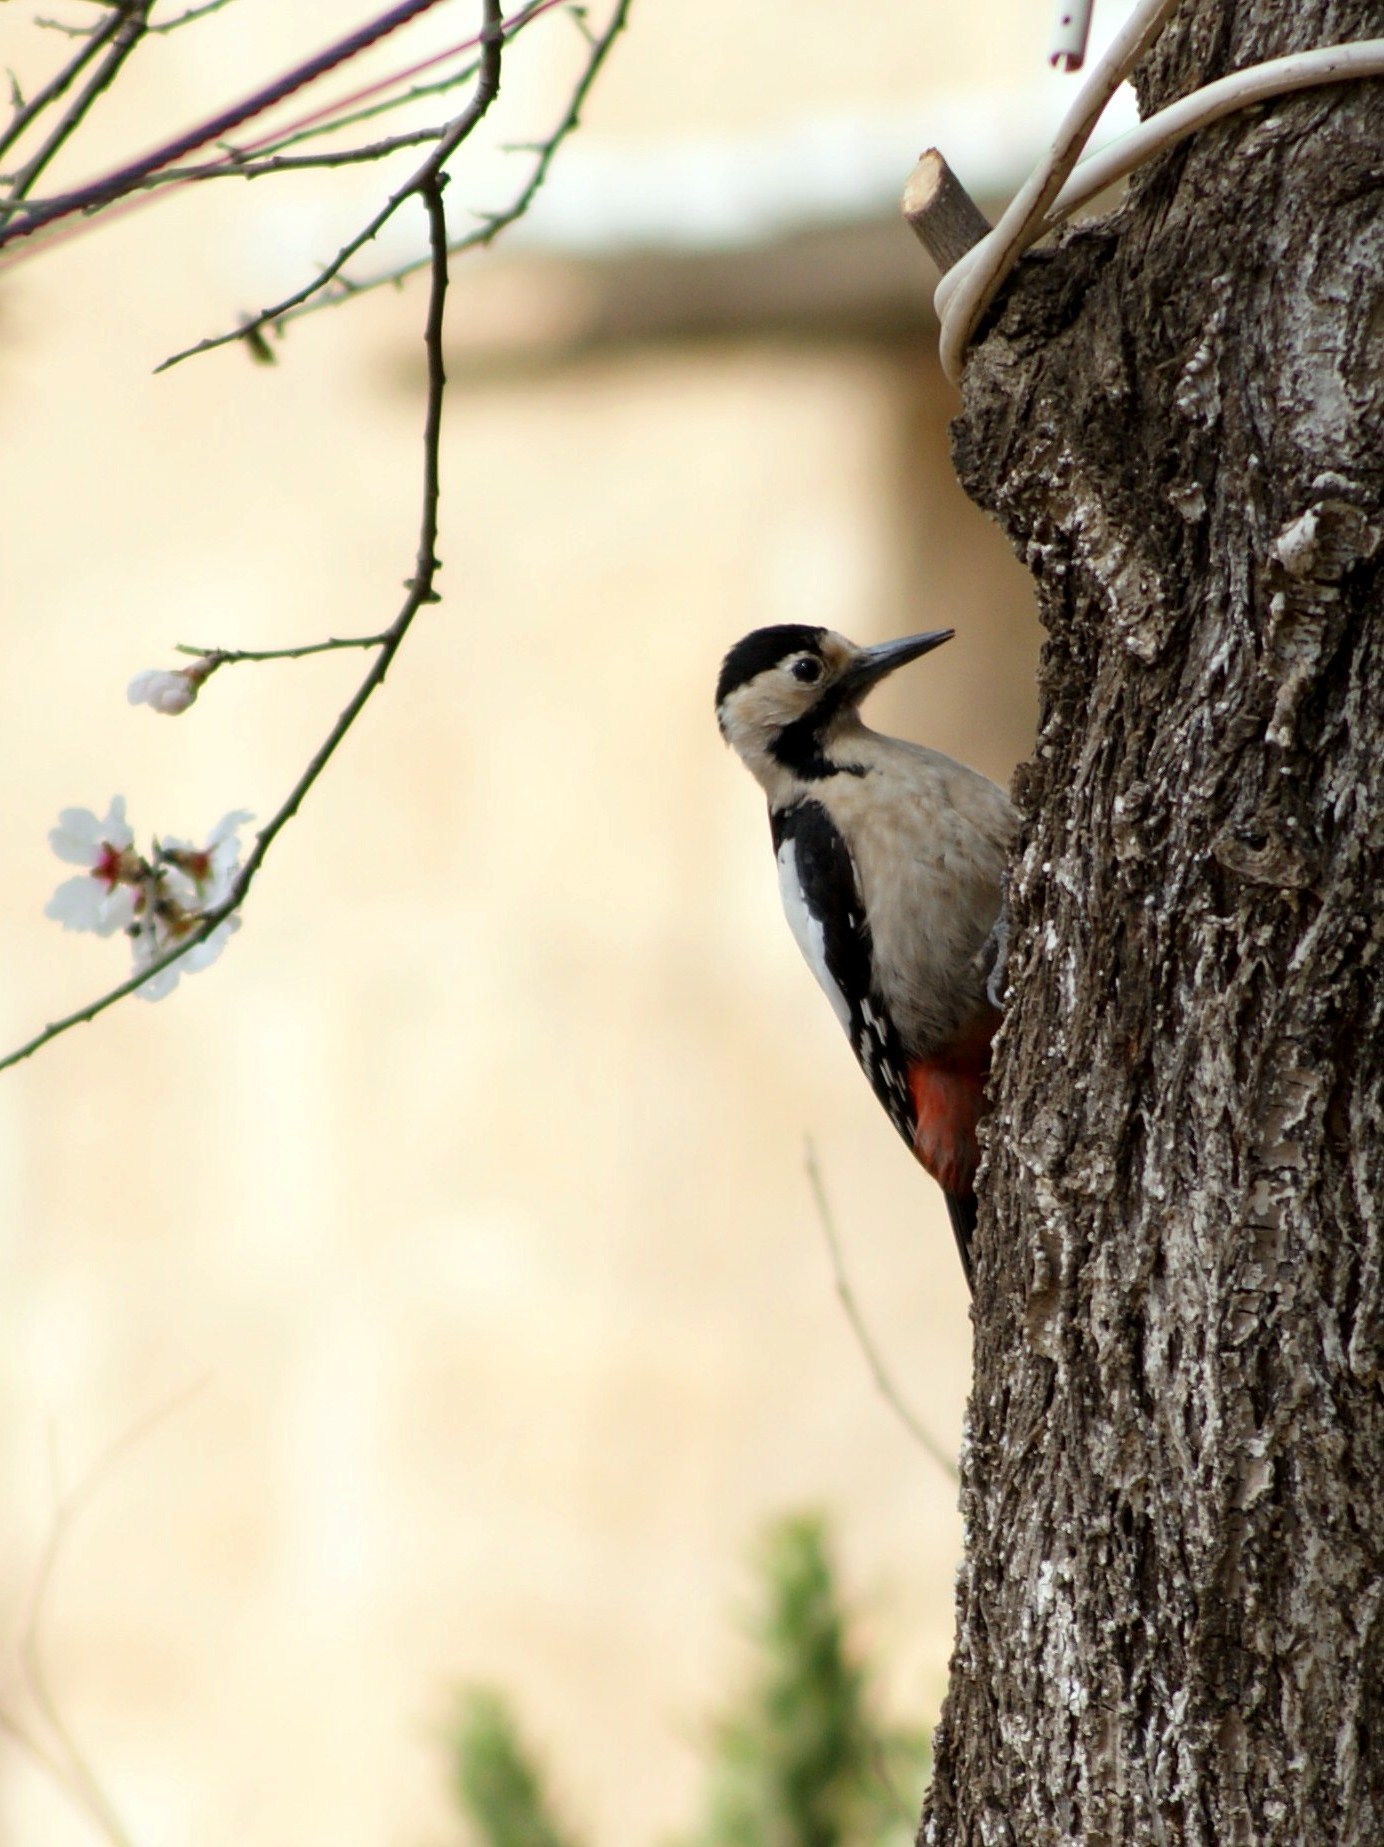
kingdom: Animalia
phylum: Chordata
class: Aves
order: Piciformes
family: Picidae
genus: Dendrocopos
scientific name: Dendrocopos syriacus
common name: Syrian woodpecker
